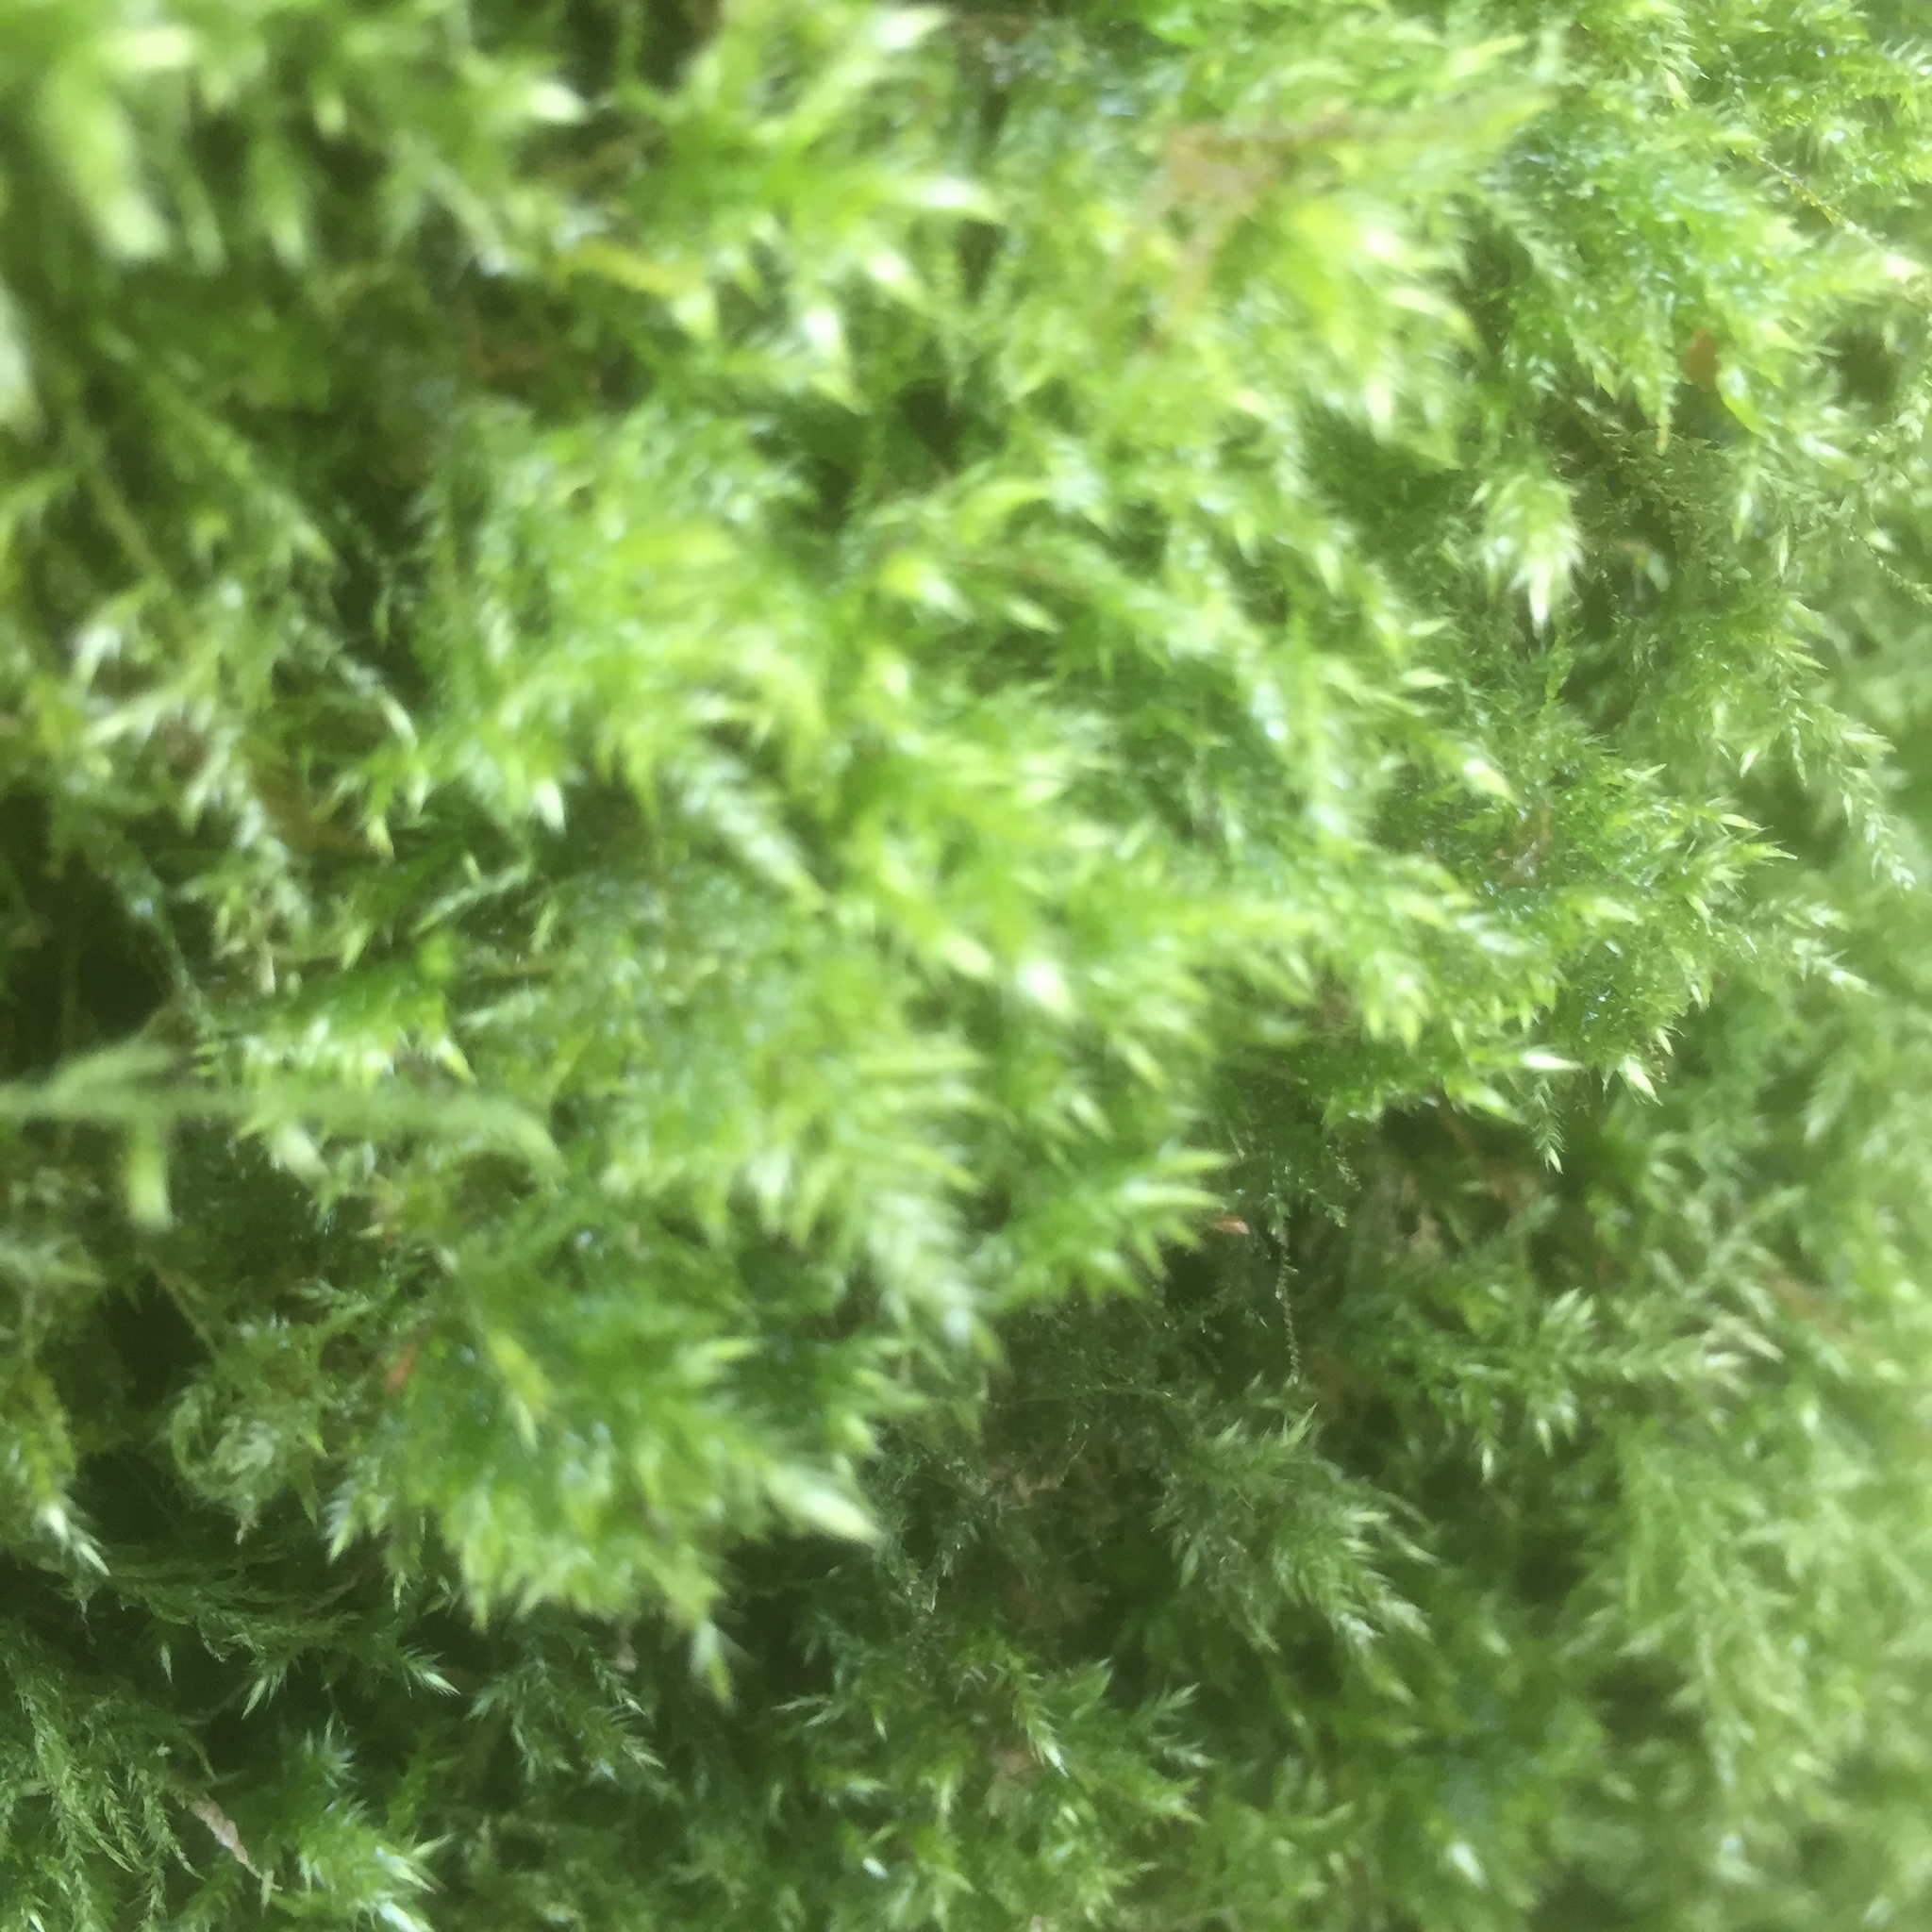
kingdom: Plantae
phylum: Bryophyta
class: Bryopsida
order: Hypnales
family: Lembophyllaceae
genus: Pseudisothecium
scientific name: Pseudisothecium myosuroides
